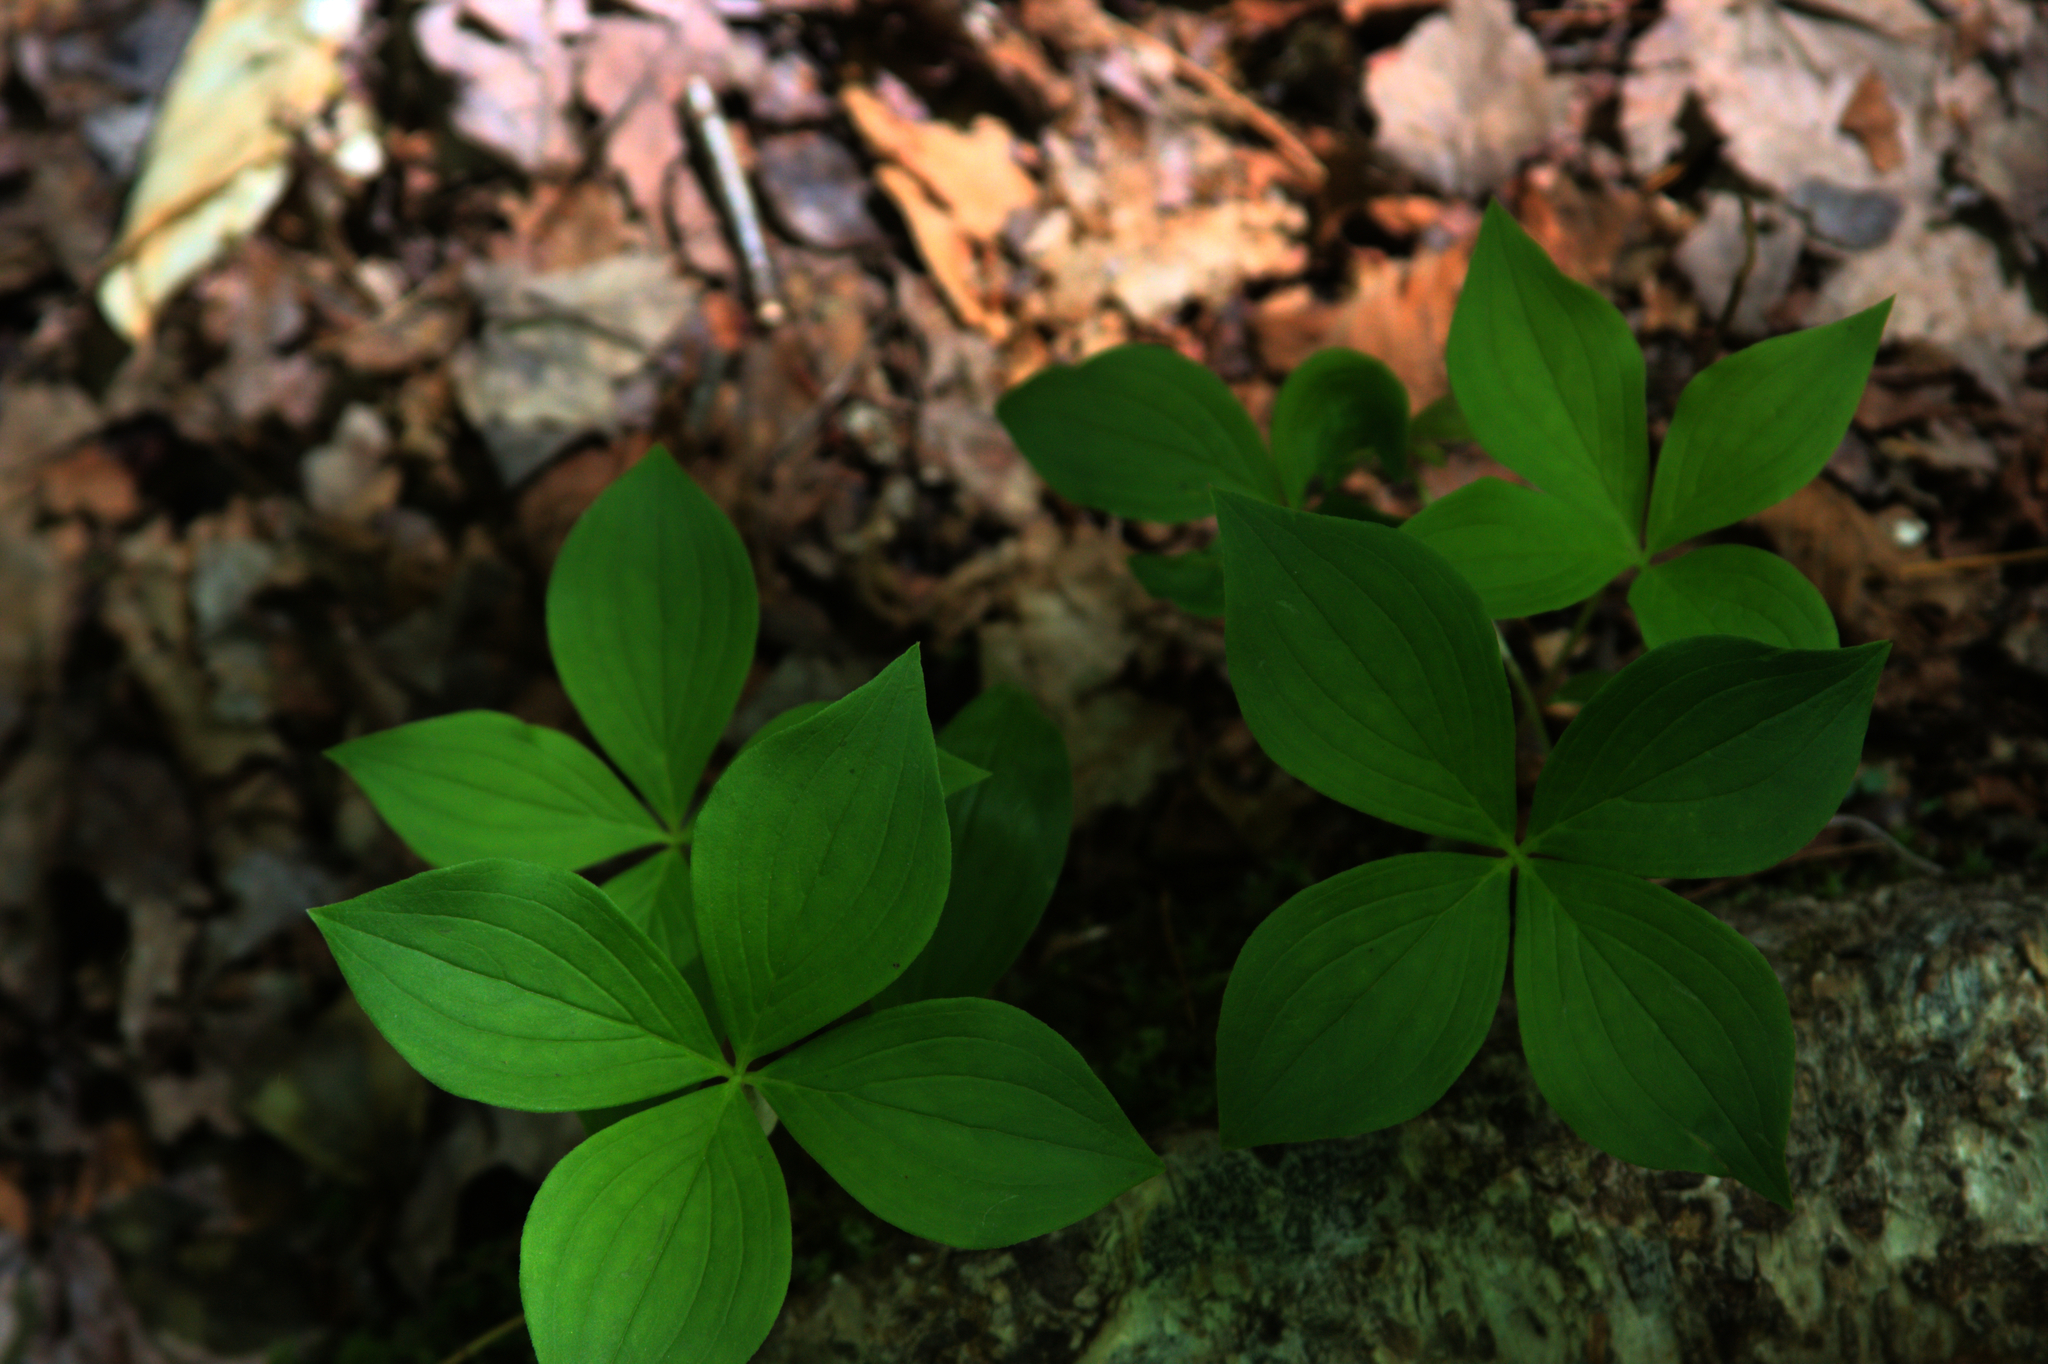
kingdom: Plantae
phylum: Tracheophyta
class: Magnoliopsida
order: Cornales
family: Cornaceae
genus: Cornus
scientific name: Cornus canadensis
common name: Creeping dogwood
